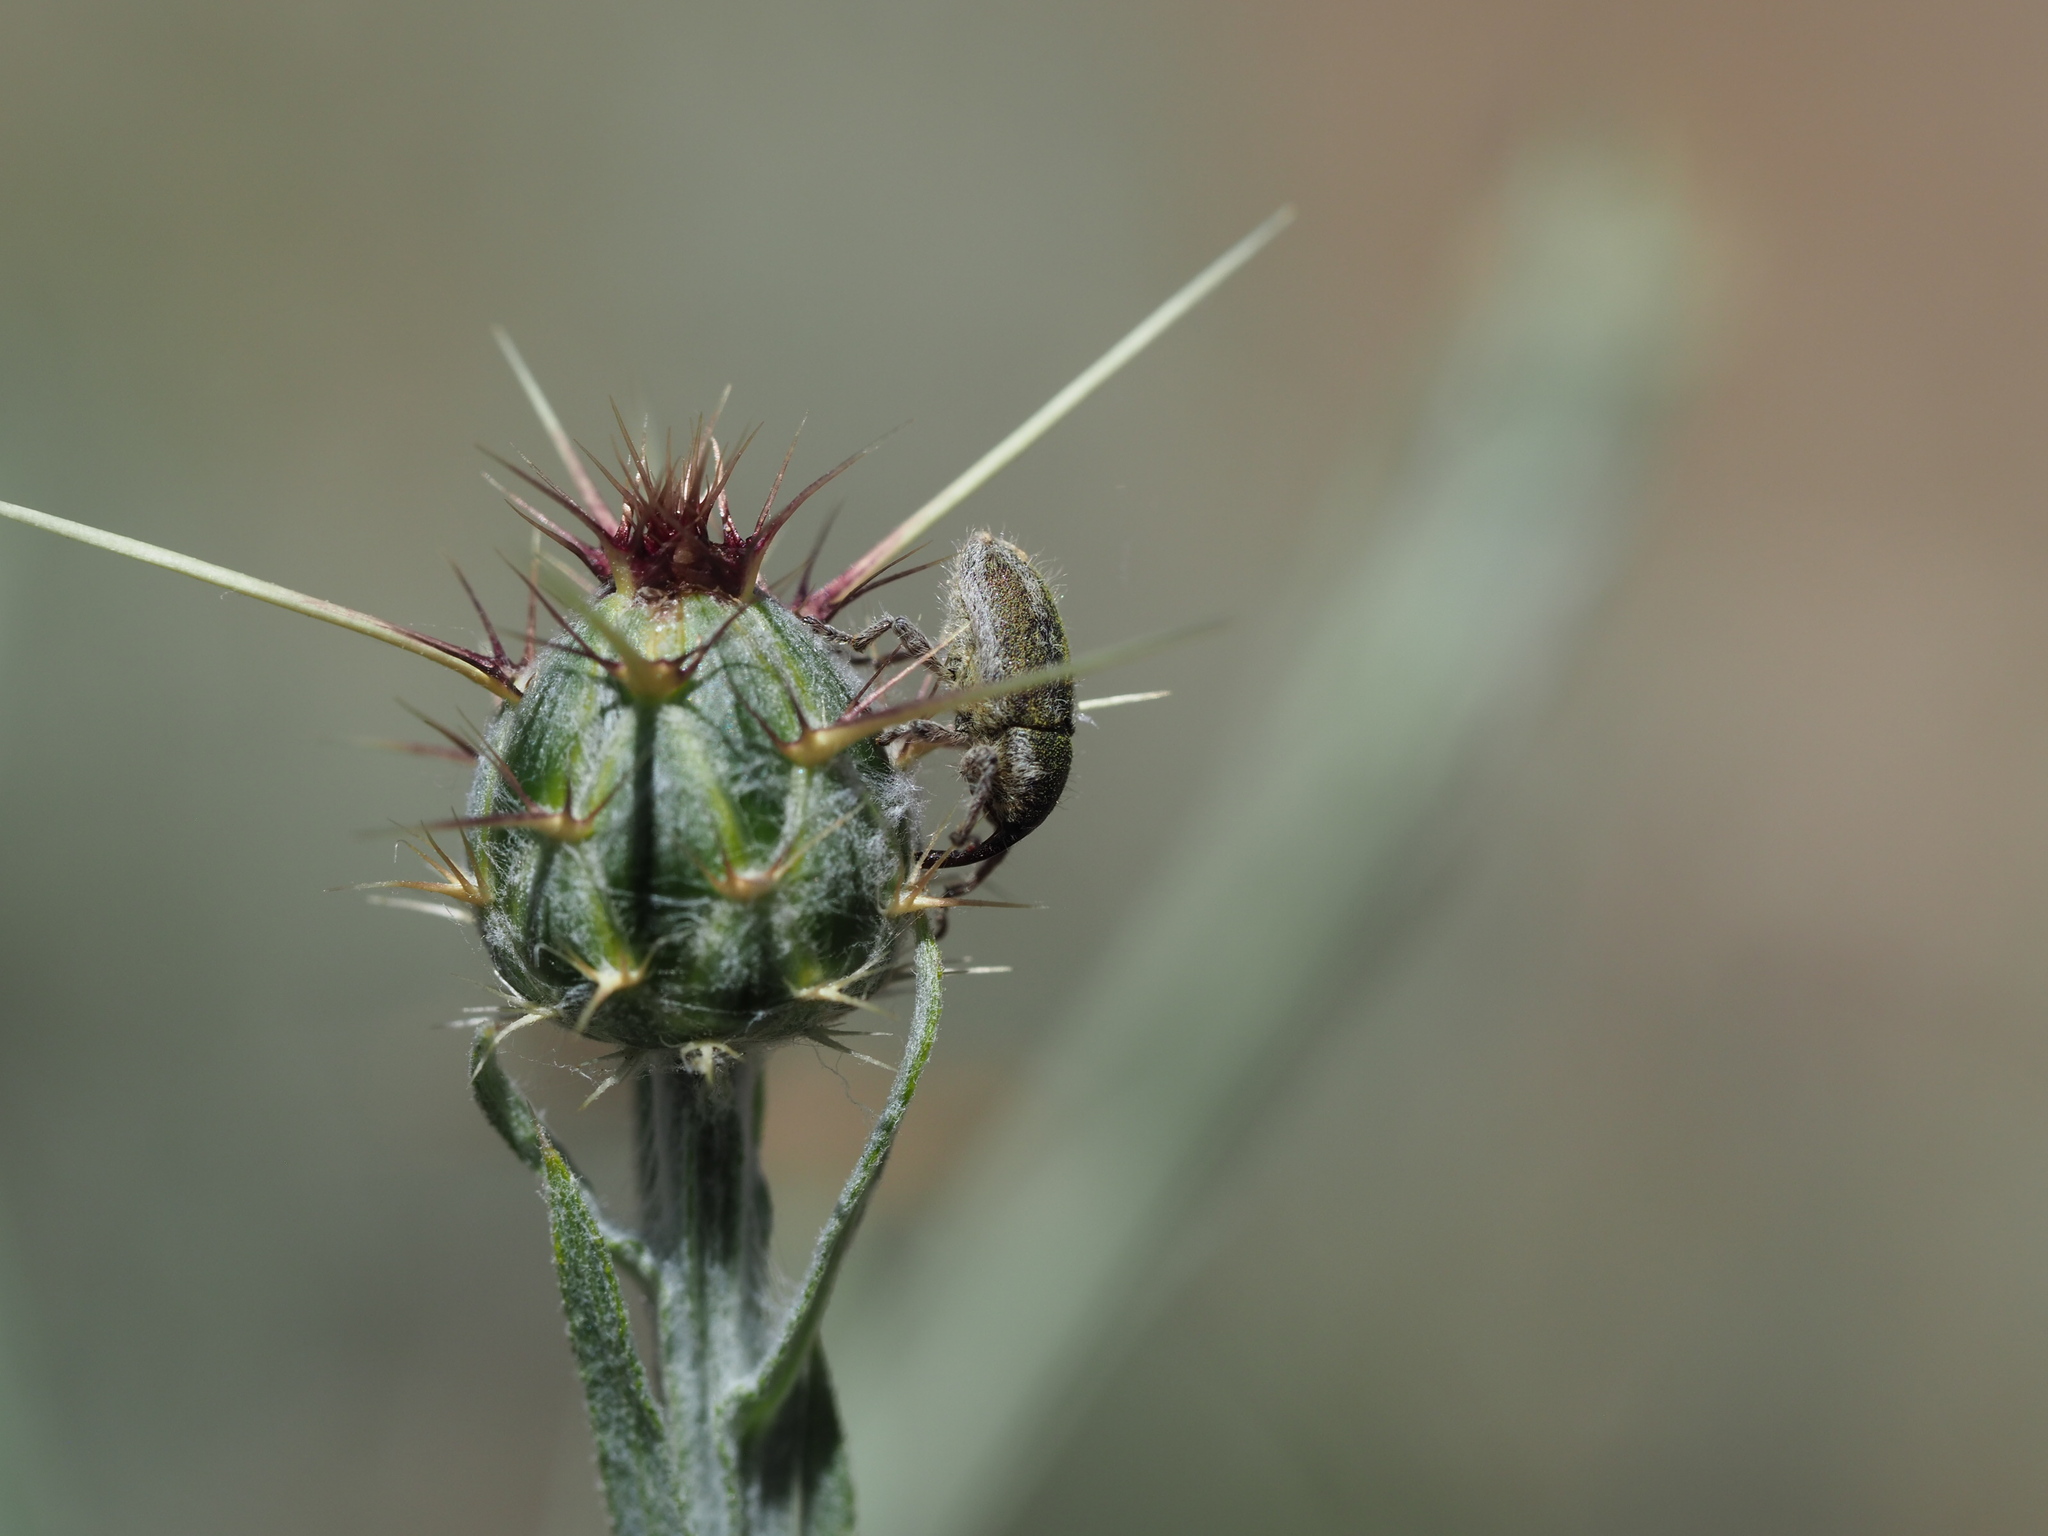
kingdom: Animalia
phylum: Arthropoda
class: Insecta
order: Coleoptera
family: Curculionidae
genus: Larinus
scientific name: Larinus villosus
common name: Yellow starthistle hairy weevil
